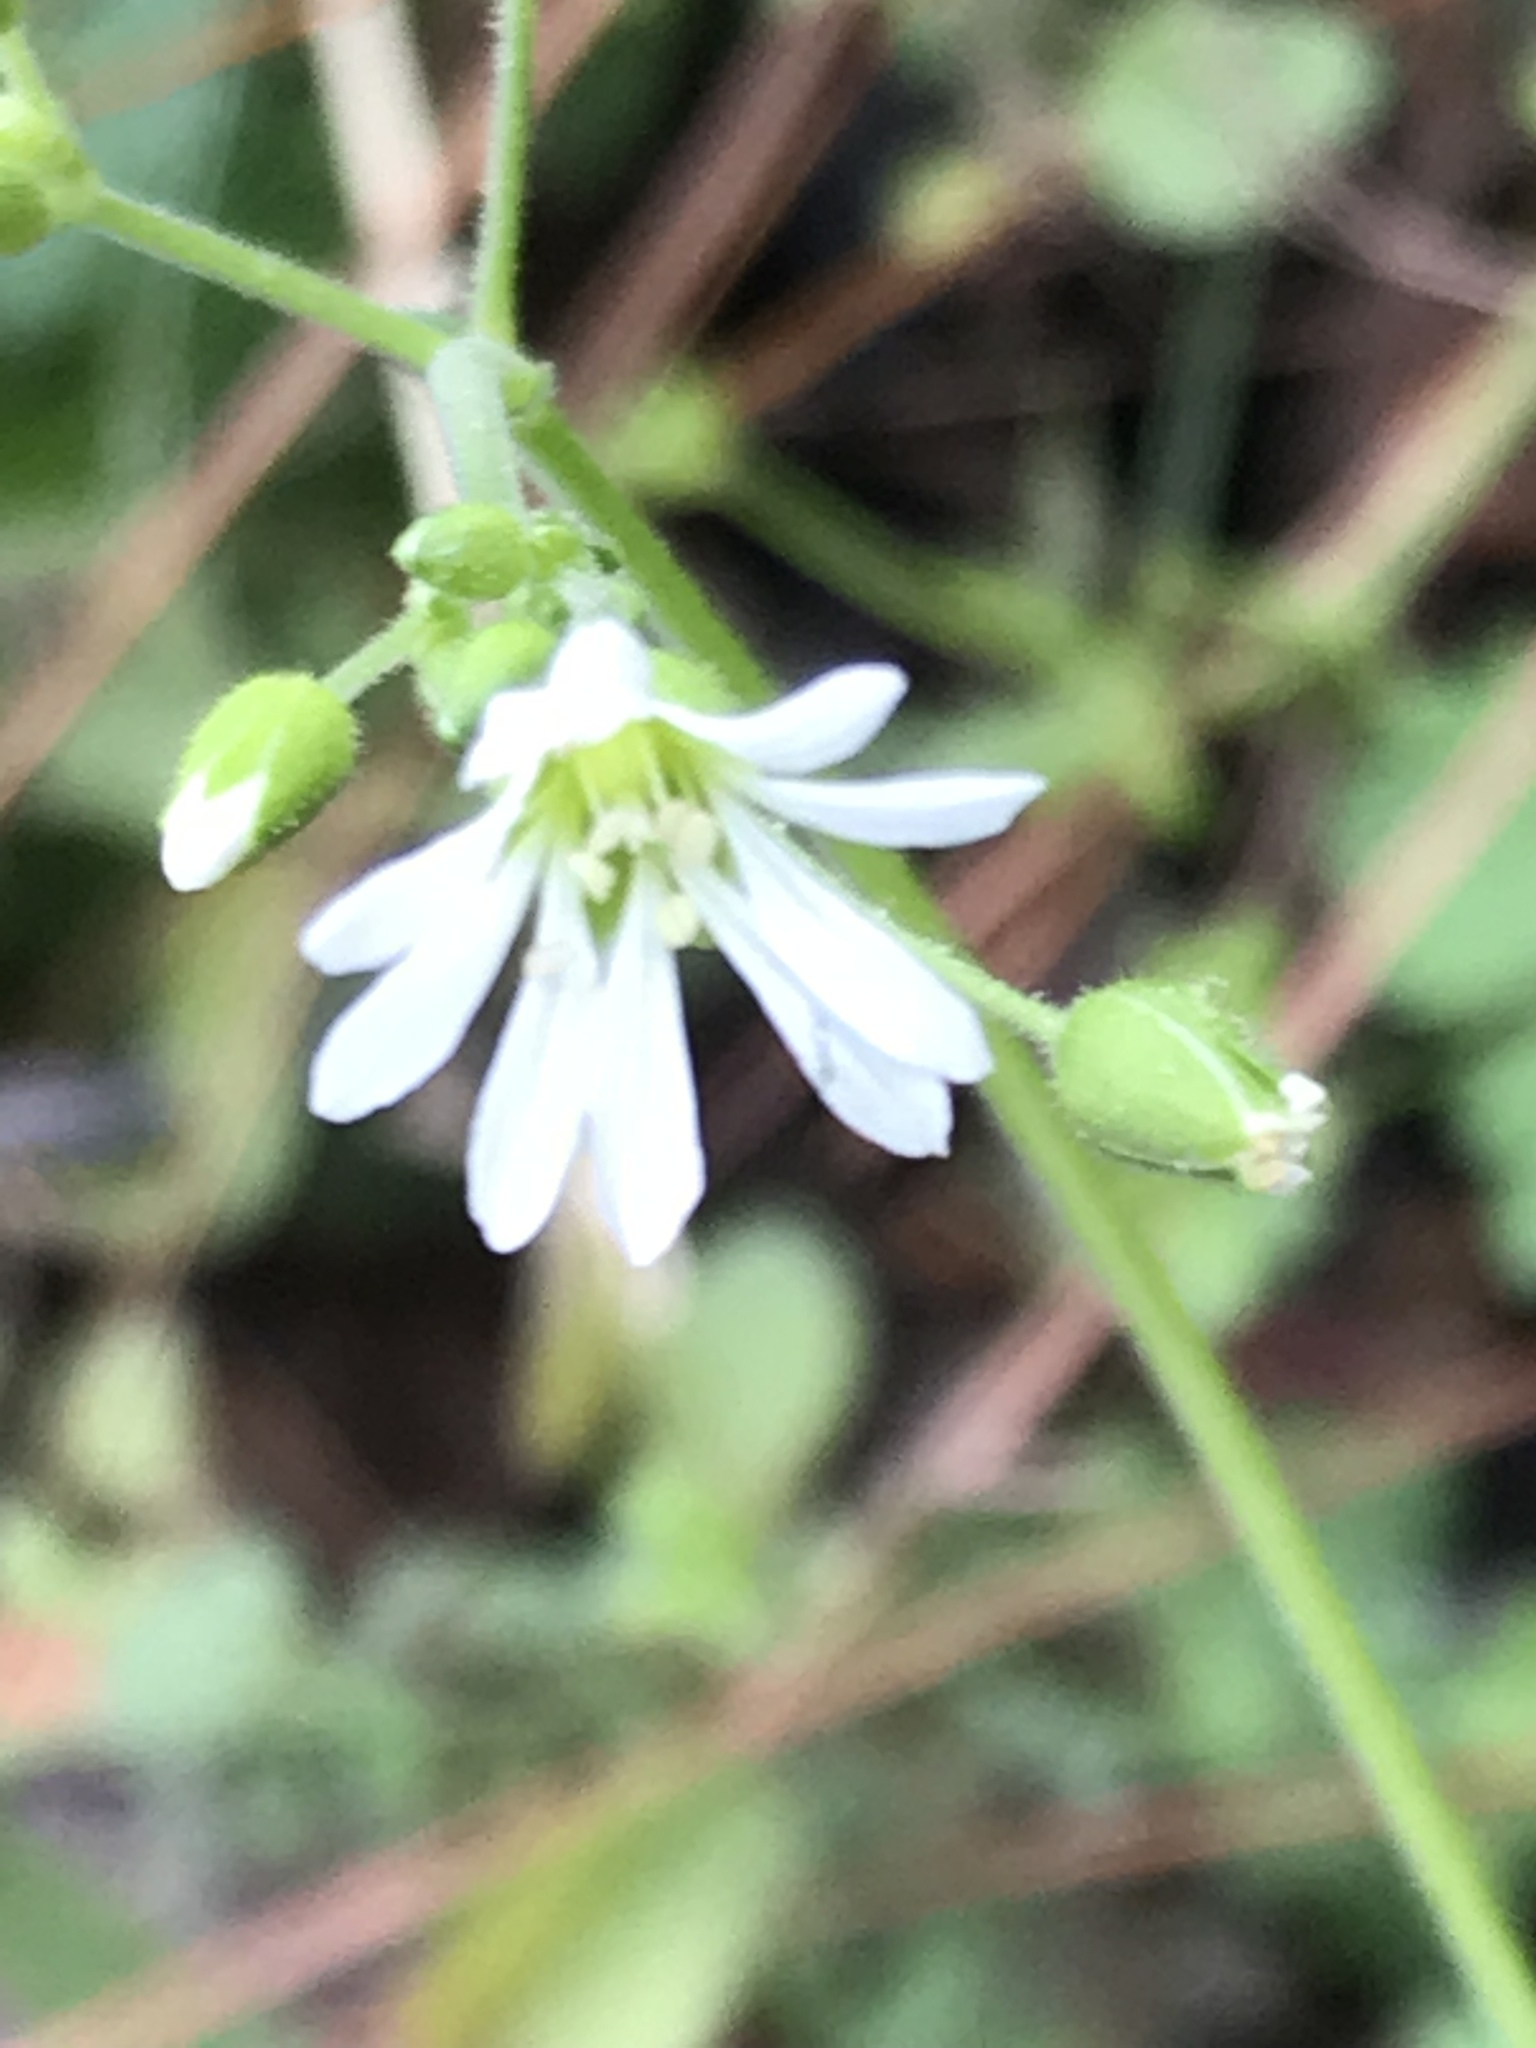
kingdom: Plantae
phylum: Tracheophyta
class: Magnoliopsida
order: Caryophyllales
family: Caryophyllaceae
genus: Stellaria
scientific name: Stellaria cuspidata
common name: Mexican chickweed
